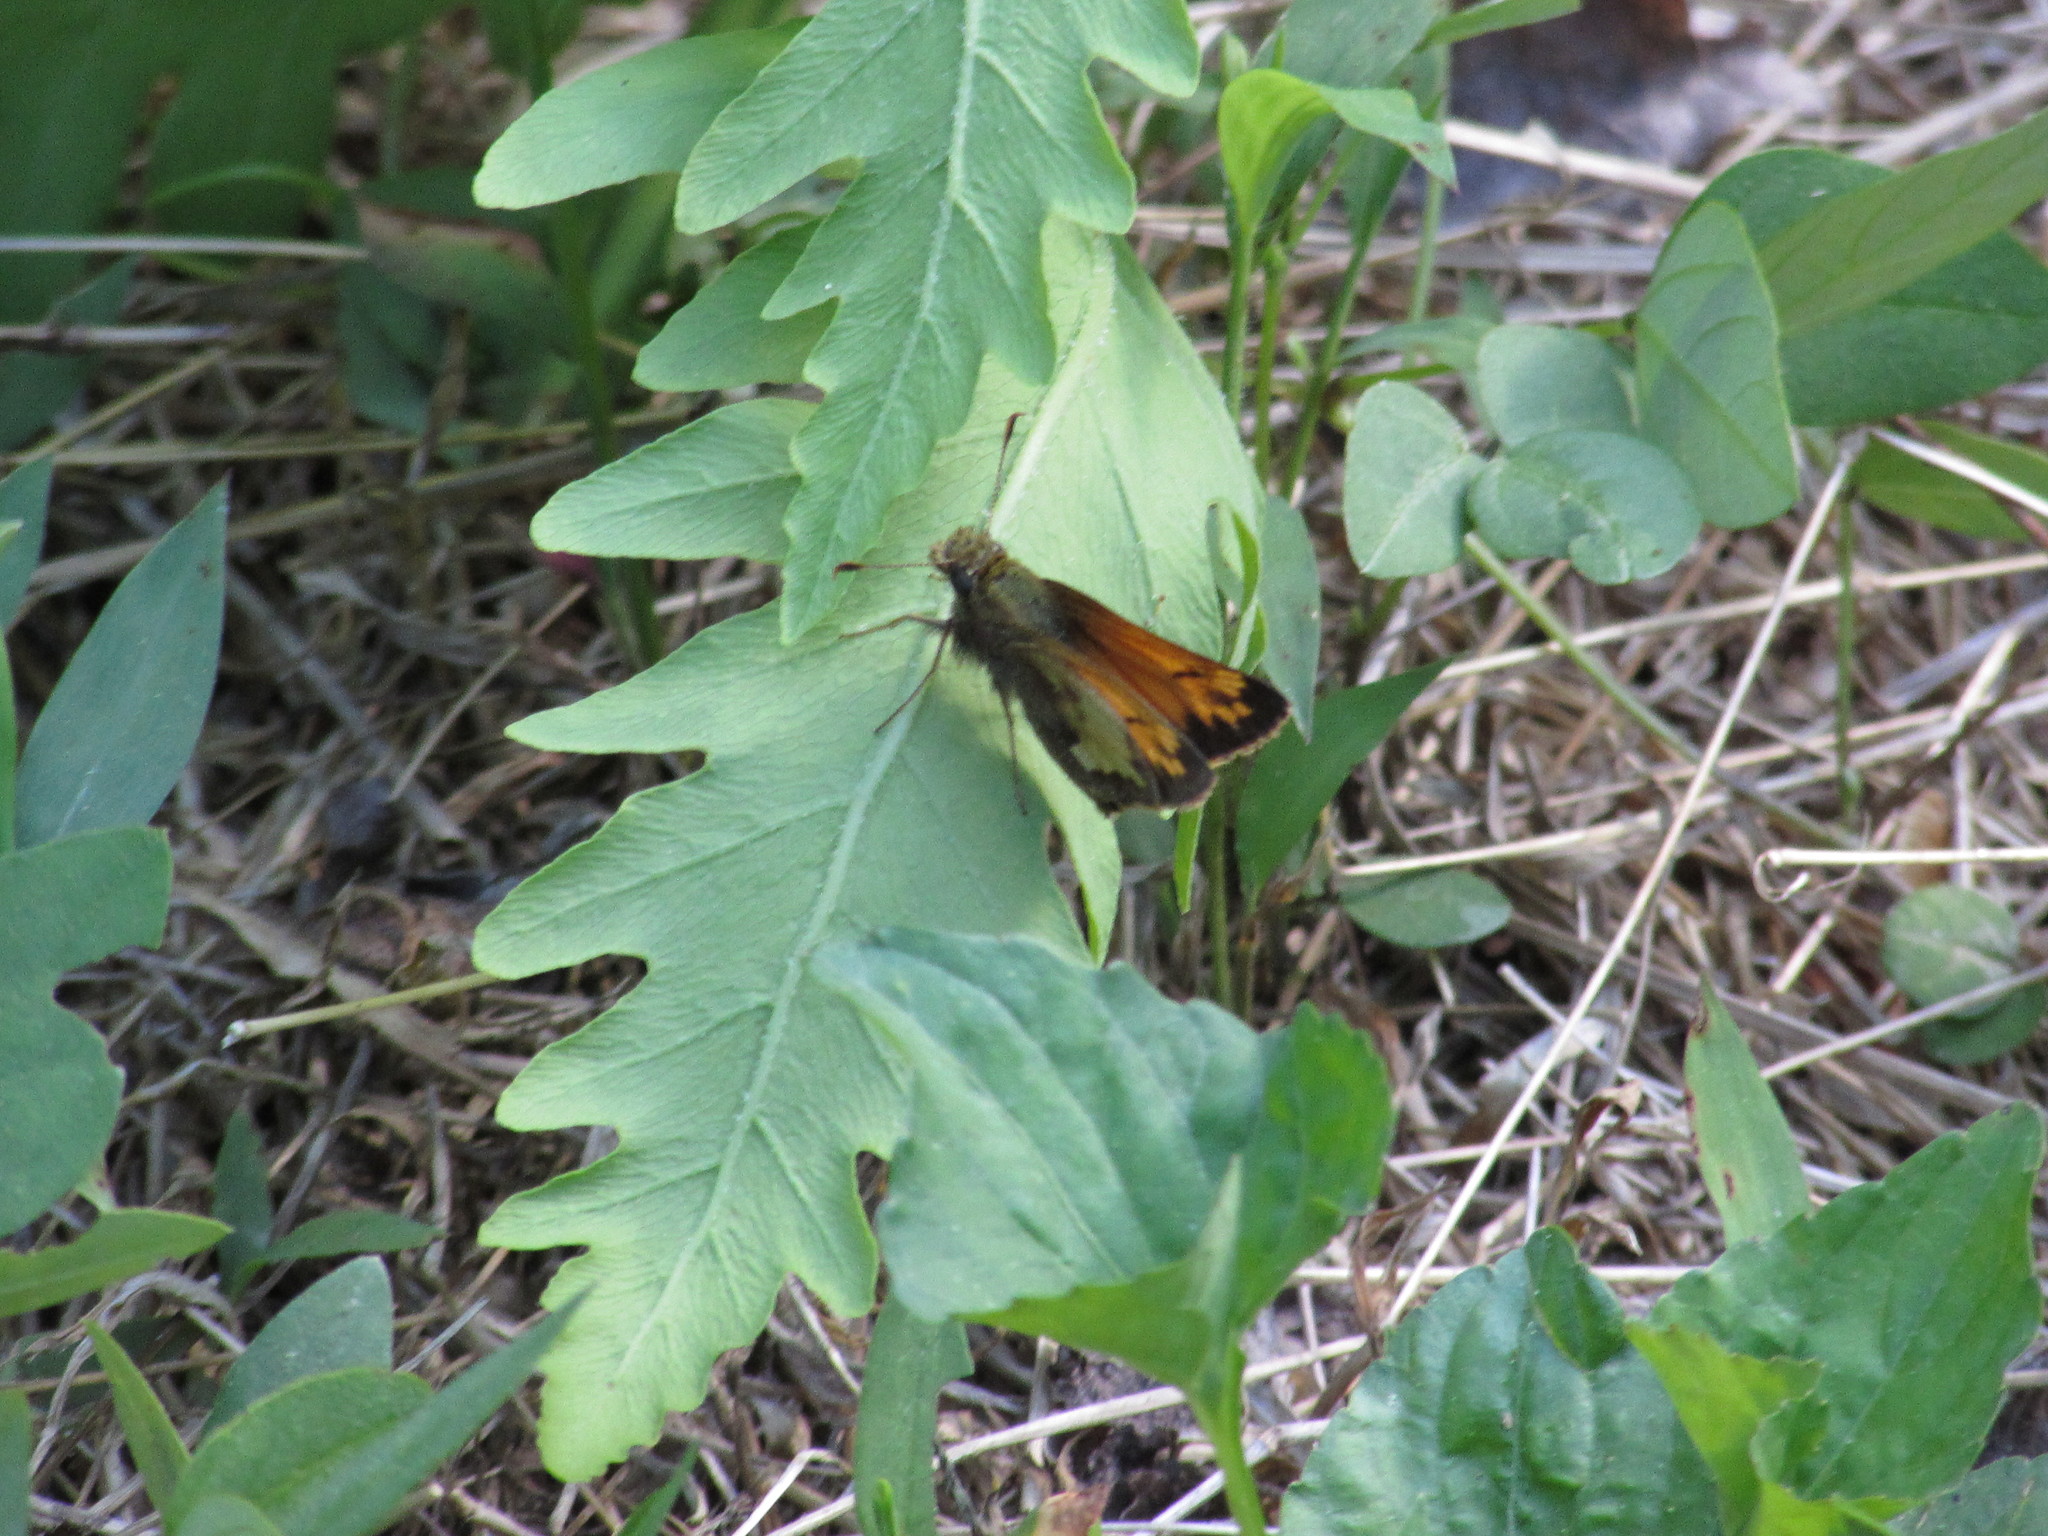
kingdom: Animalia
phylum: Arthropoda
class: Insecta
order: Lepidoptera
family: Hesperiidae
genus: Lon
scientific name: Lon hobomok
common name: Hobomok skipper
